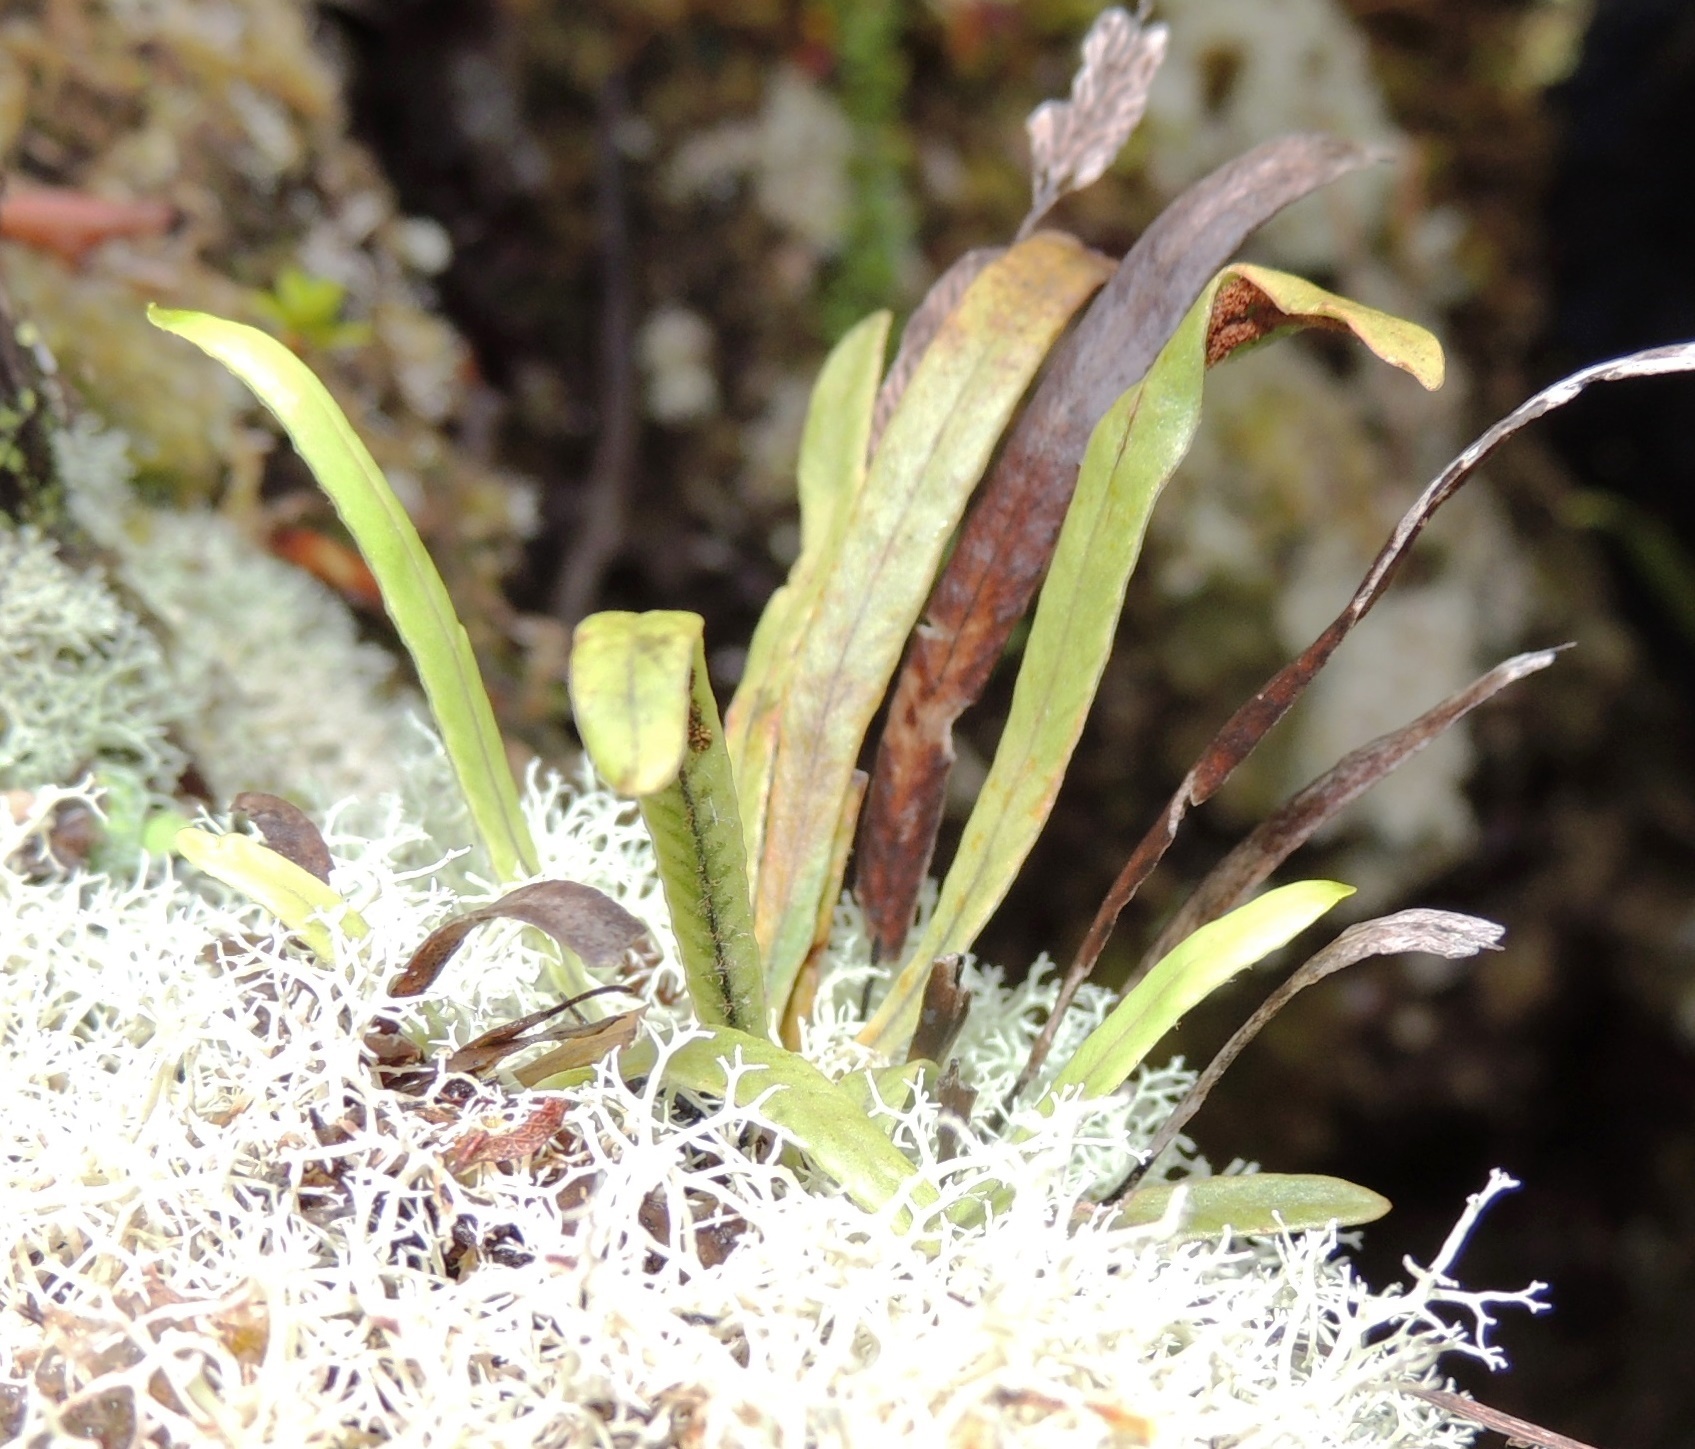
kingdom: Plantae
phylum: Tracheophyta
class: Polypodiopsida
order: Polypodiales
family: Polypodiaceae
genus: Notogrammitis
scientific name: Notogrammitis billardierei
